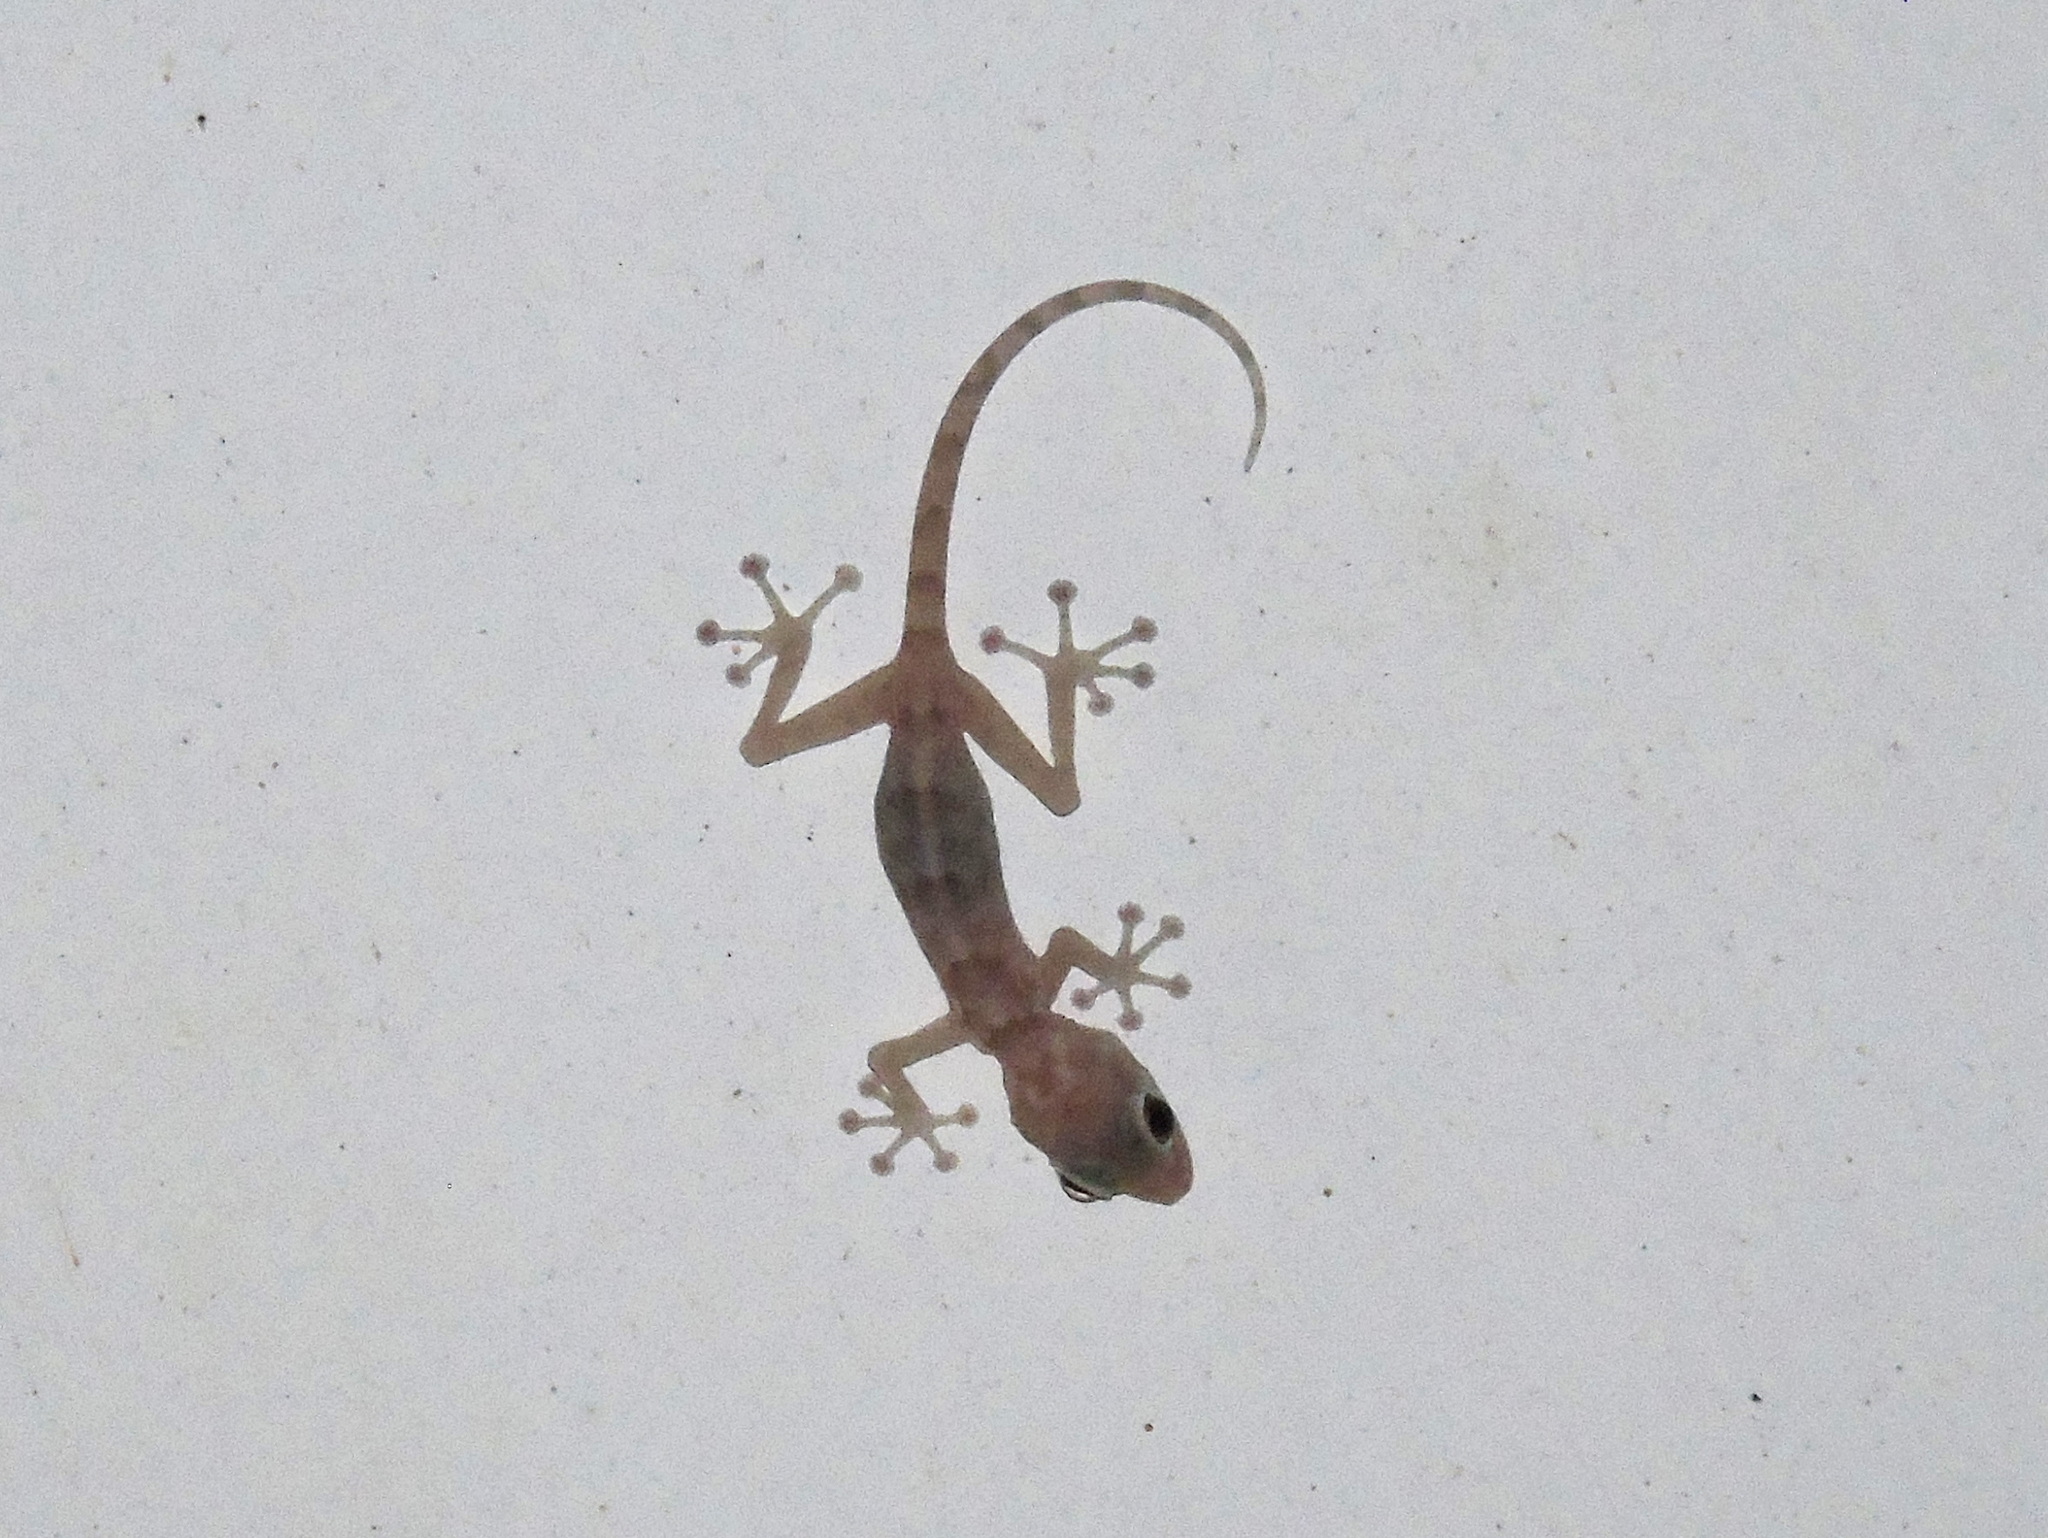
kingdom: Animalia
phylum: Chordata
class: Squamata
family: Phyllodactylidae
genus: Ptyodactylus
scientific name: Ptyodactylus hasselquistii
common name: Hasselquist’s fan-footed gecko
